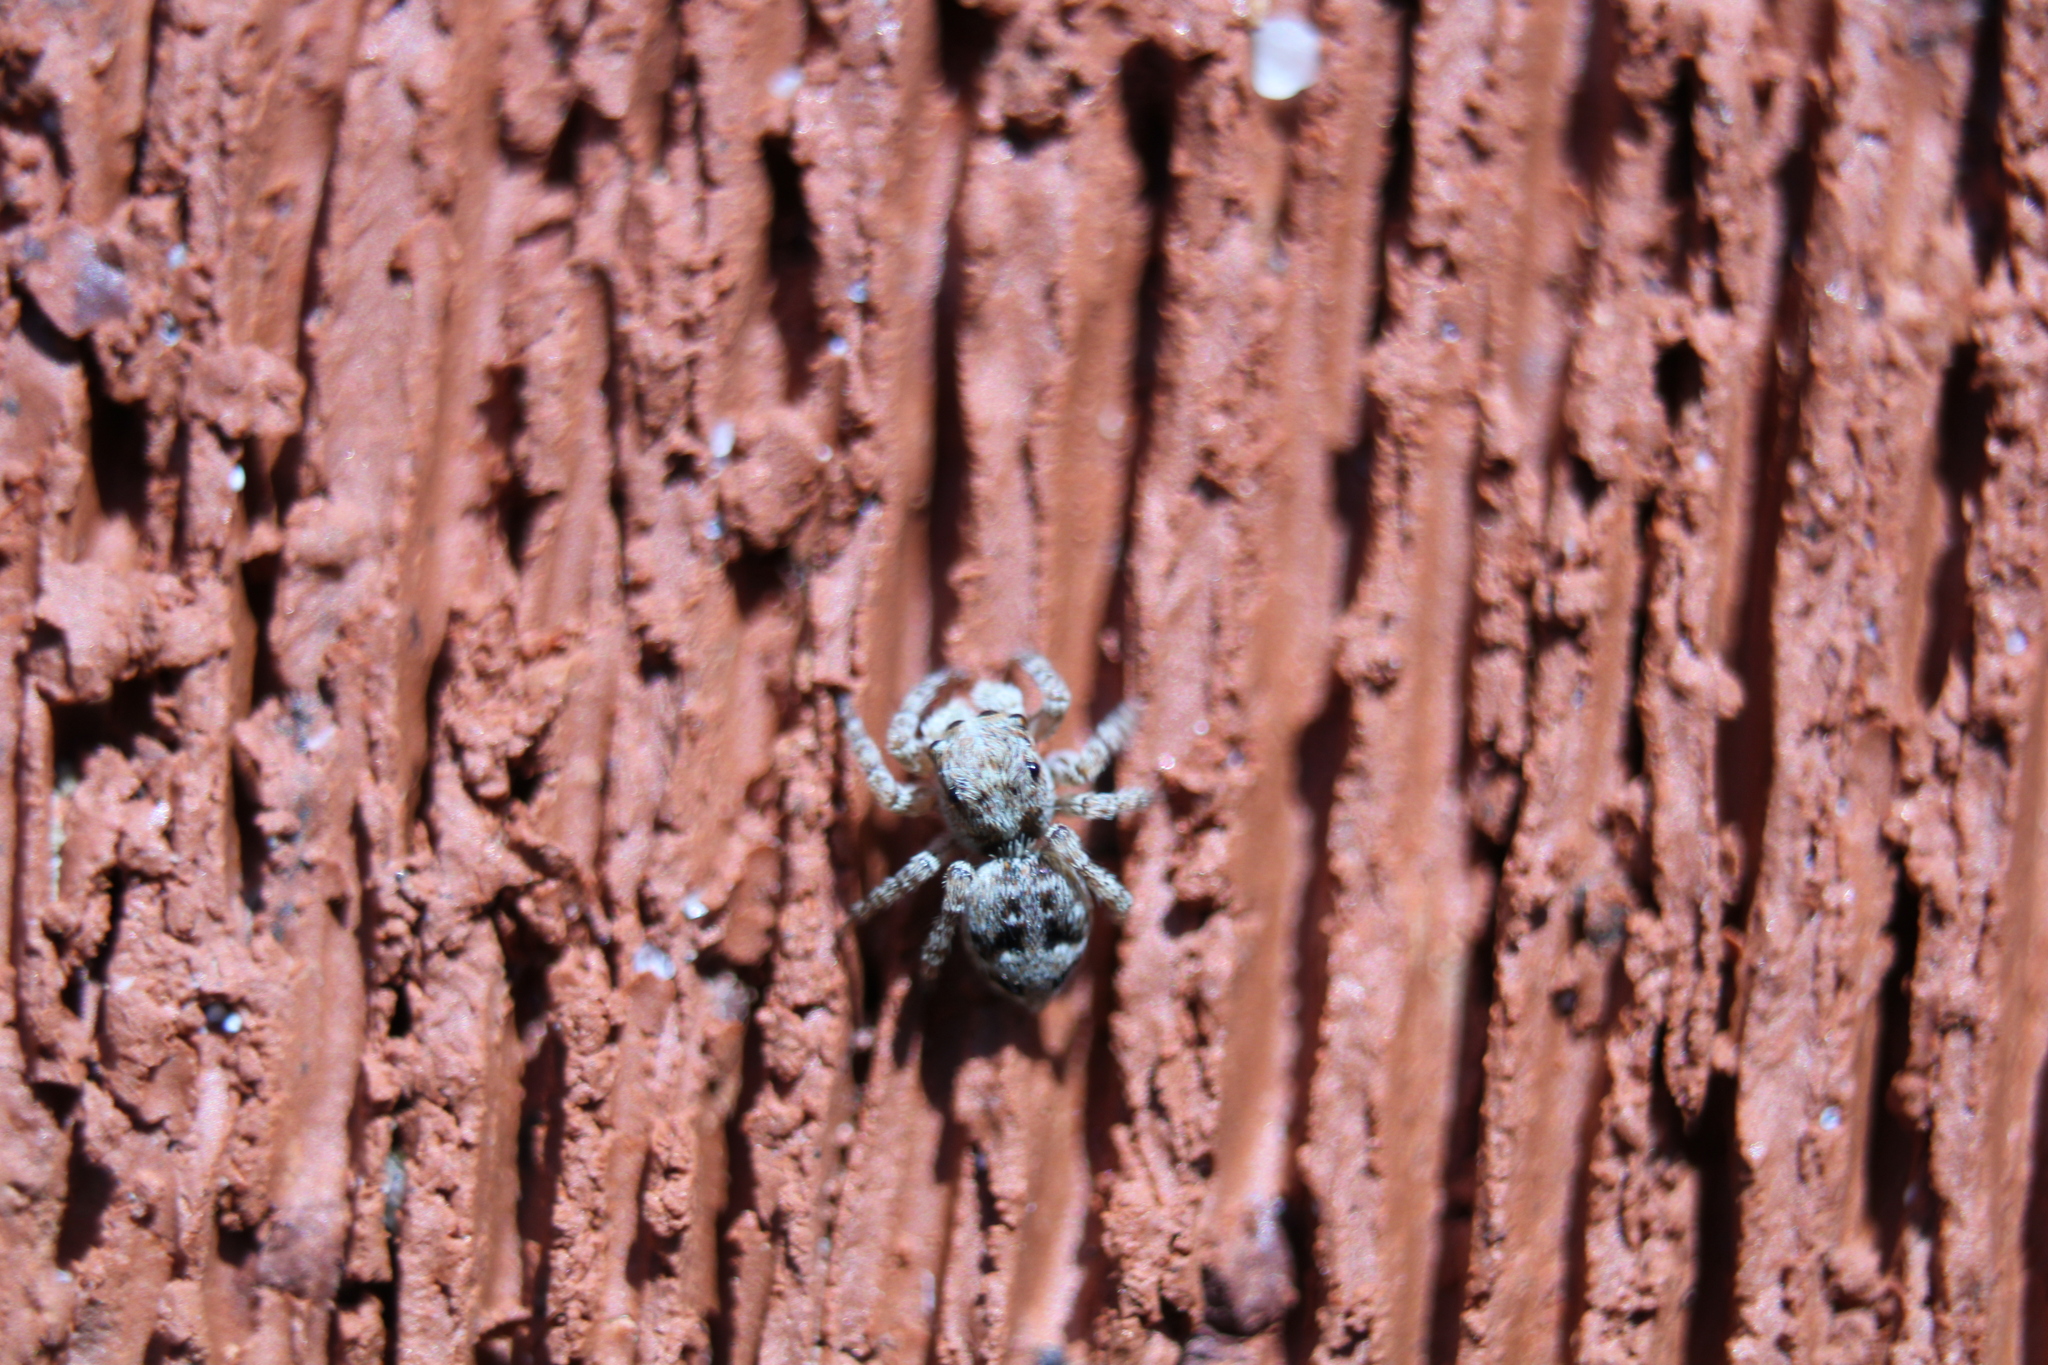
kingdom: Animalia
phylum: Arthropoda
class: Arachnida
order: Araneae
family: Salticidae
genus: Attulus
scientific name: Attulus fasciger
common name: Asiatic wall jumping spider
